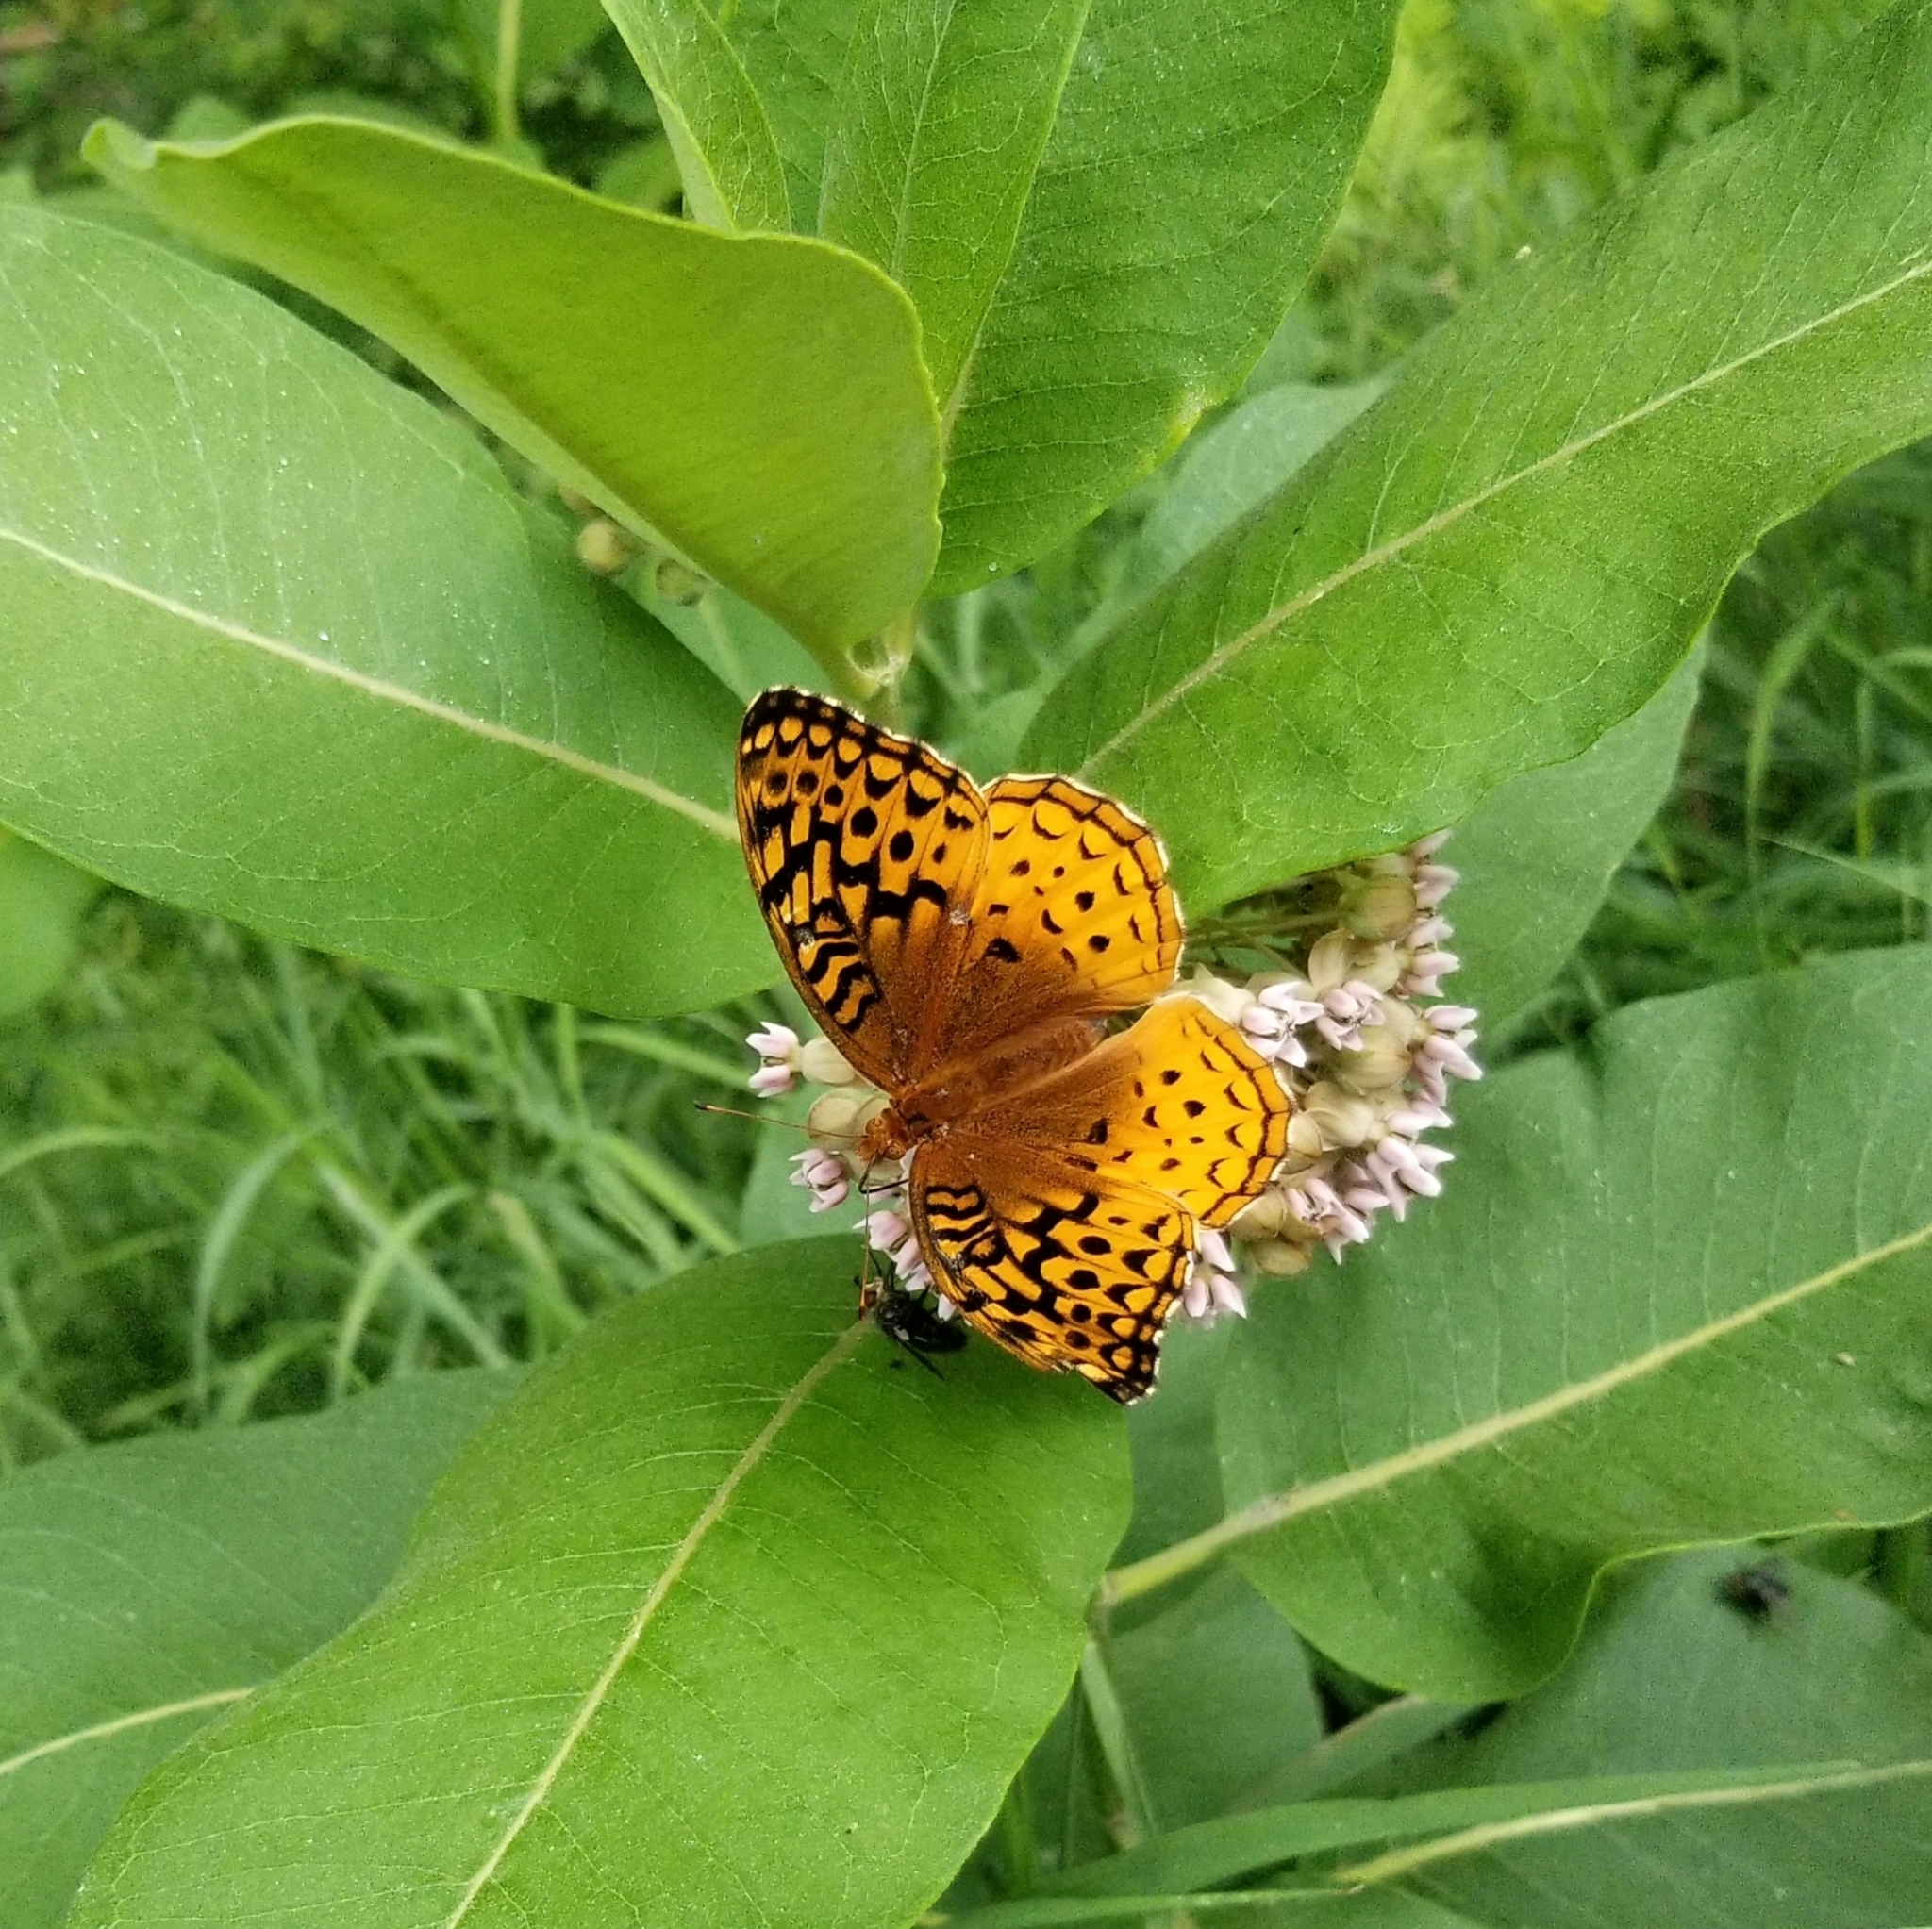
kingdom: Animalia
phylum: Arthropoda
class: Insecta
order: Lepidoptera
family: Nymphalidae
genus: Speyeria
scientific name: Speyeria cybele
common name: Great spangled fritillary
